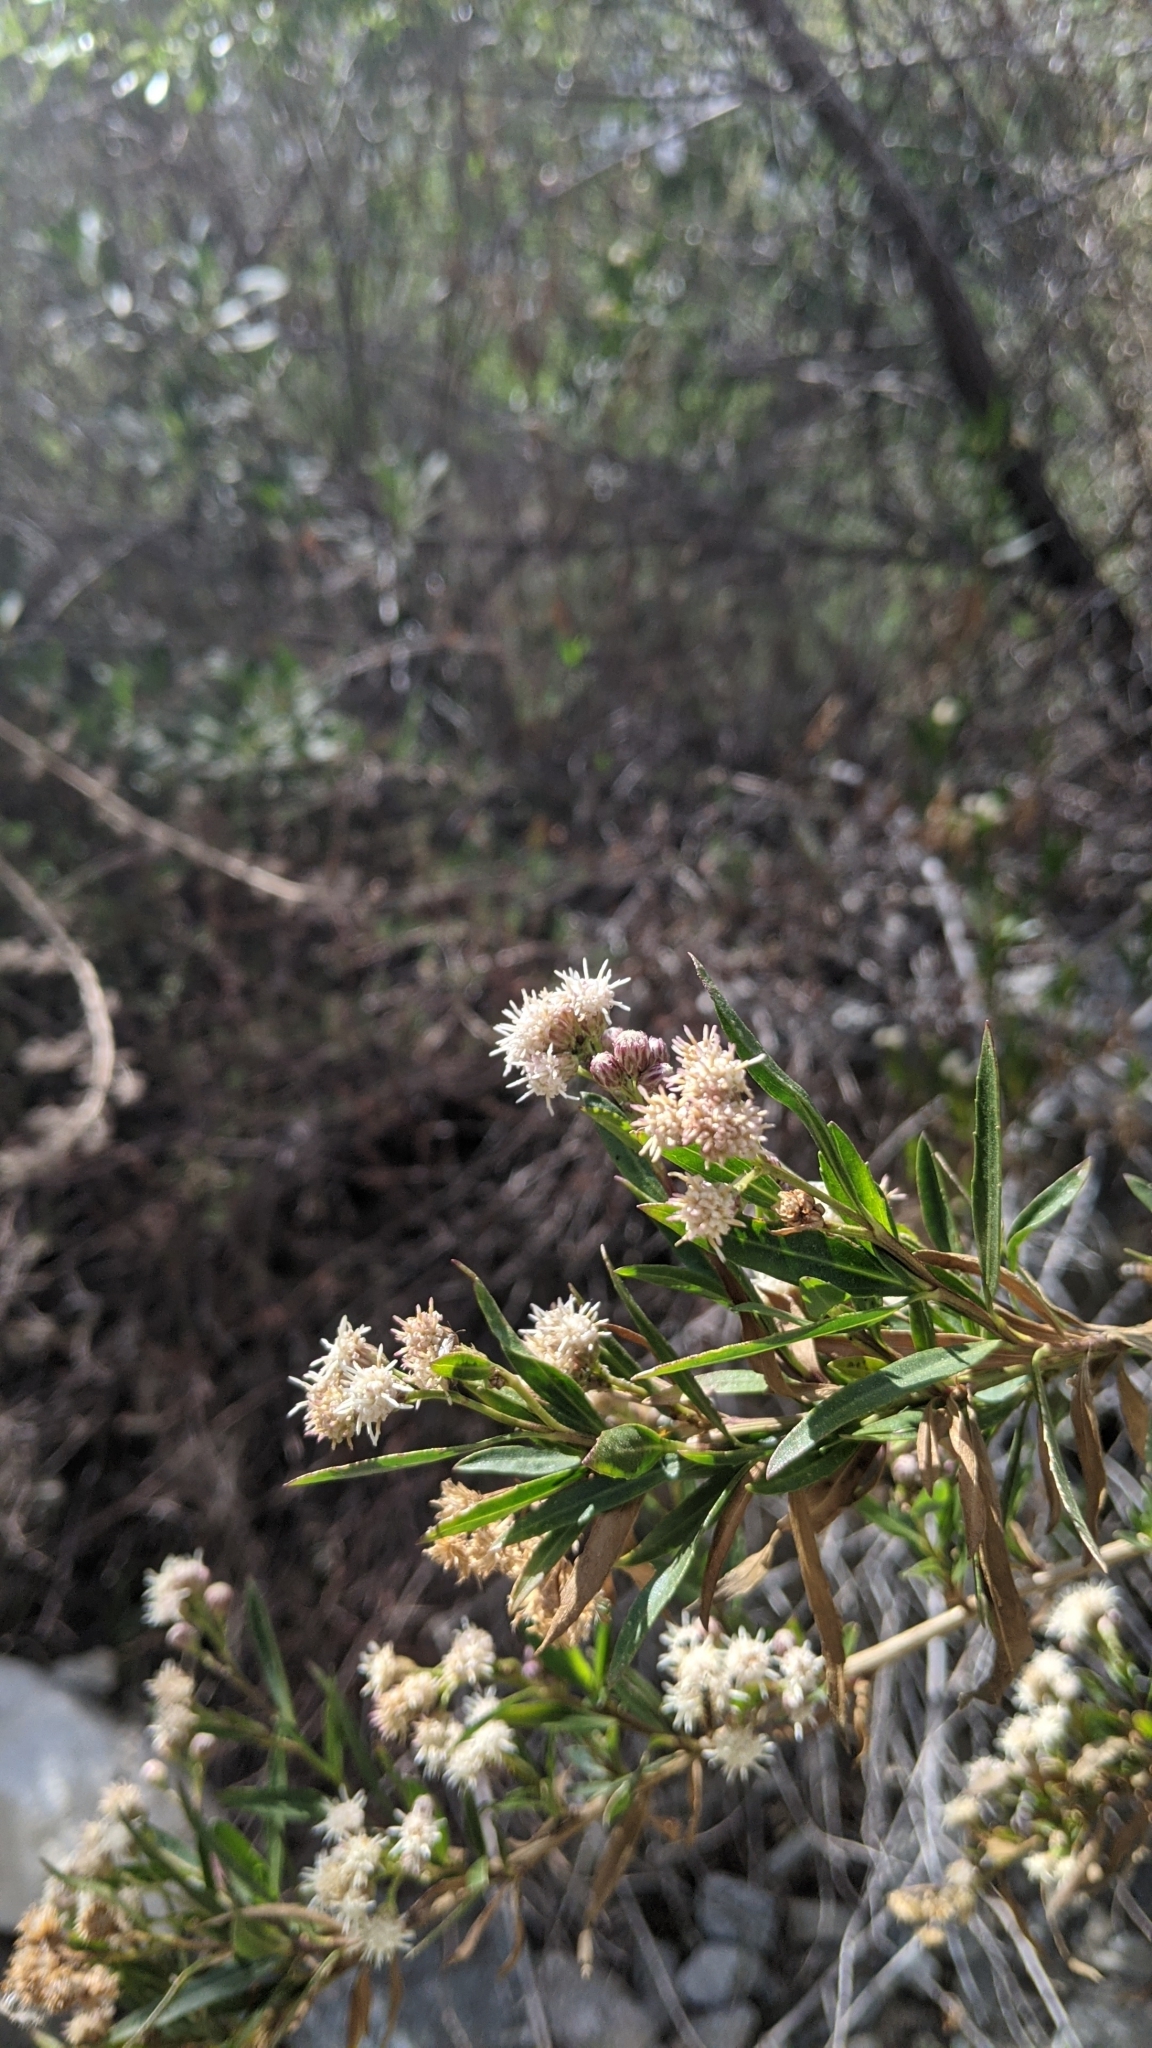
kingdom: Plantae
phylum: Tracheophyta
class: Magnoliopsida
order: Asterales
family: Asteraceae
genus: Baccharis
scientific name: Baccharis salicifolia
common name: Sticky baccharis
